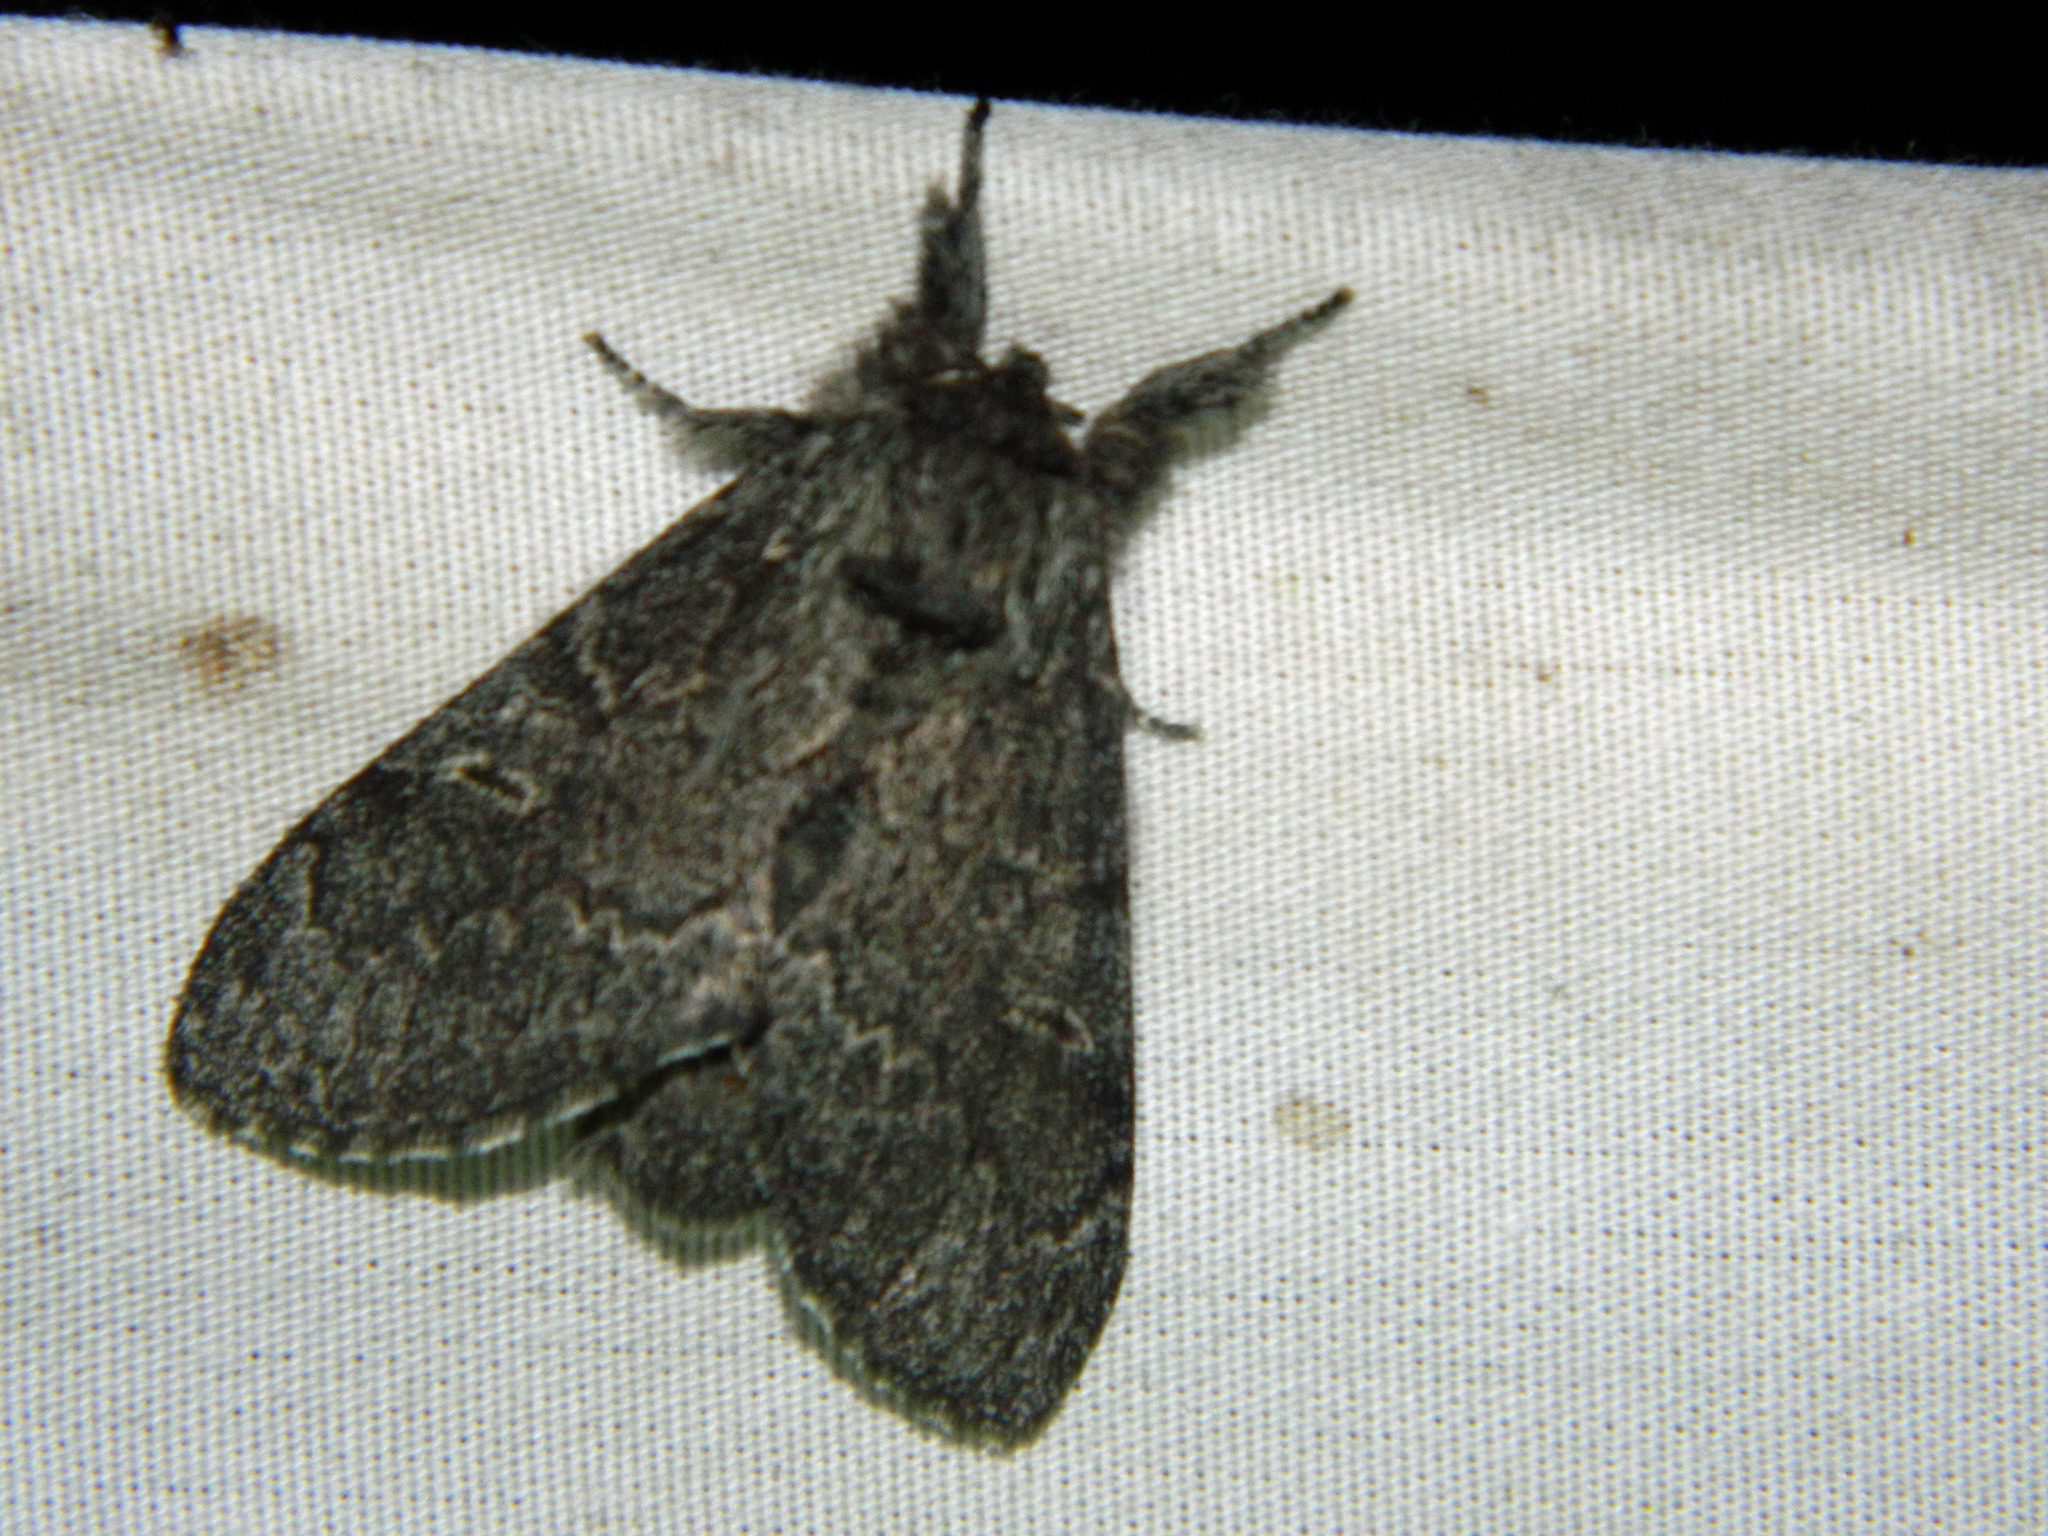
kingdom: Animalia
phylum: Arthropoda
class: Insecta
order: Lepidoptera
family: Notodontidae
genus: Notodonta
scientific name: Notodonta torva
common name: Large dark prominent
